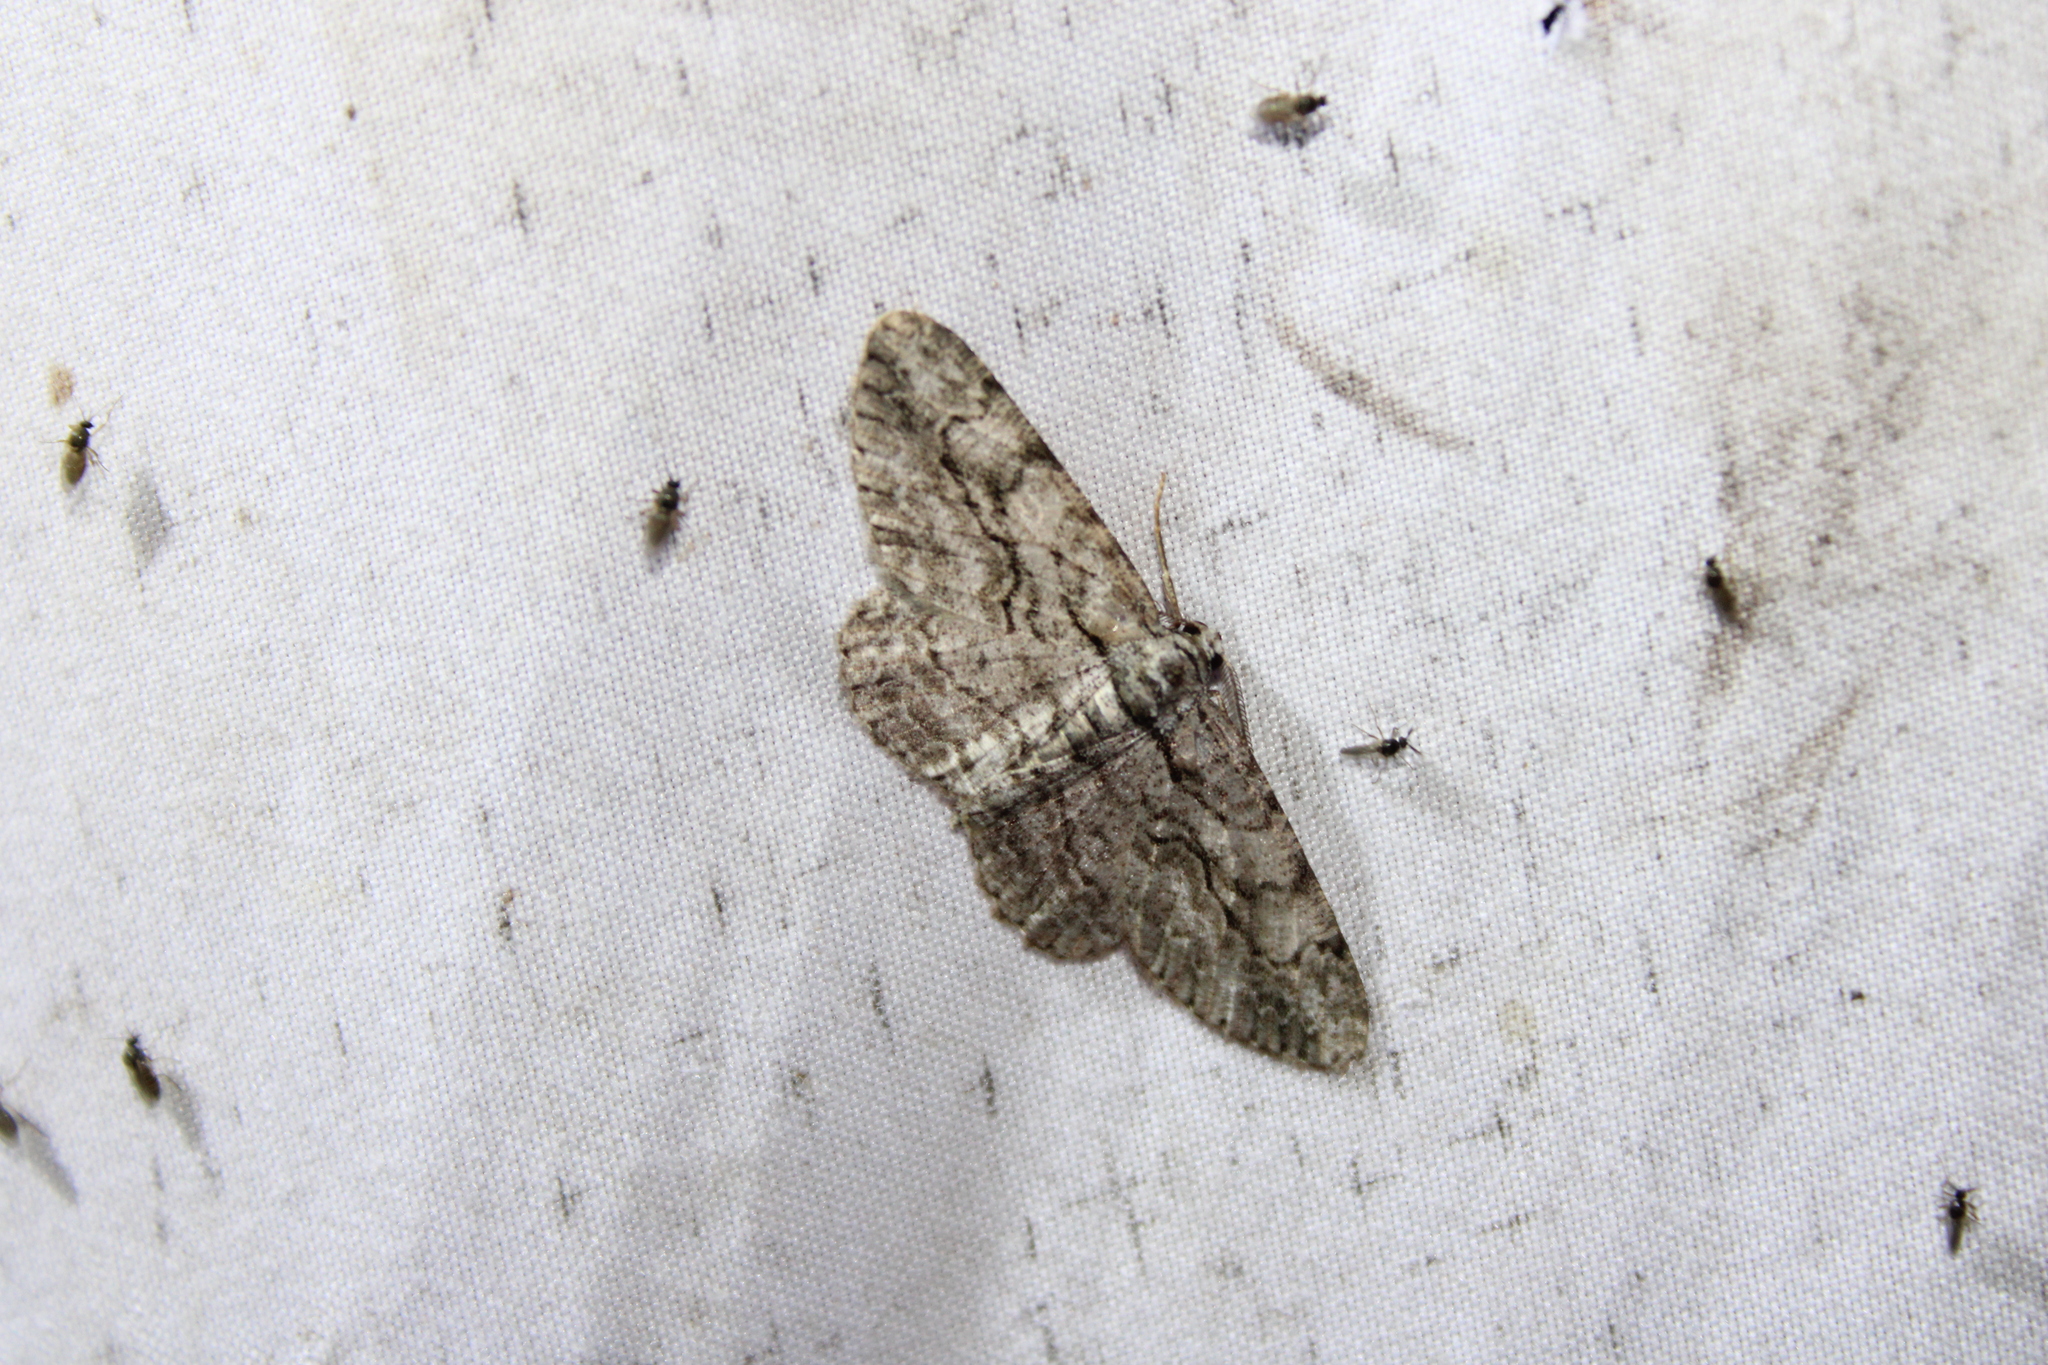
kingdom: Animalia
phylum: Arthropoda
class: Insecta
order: Lepidoptera
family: Geometridae
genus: Anavitrinella
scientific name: Anavitrinella pampinaria
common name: Common gray
